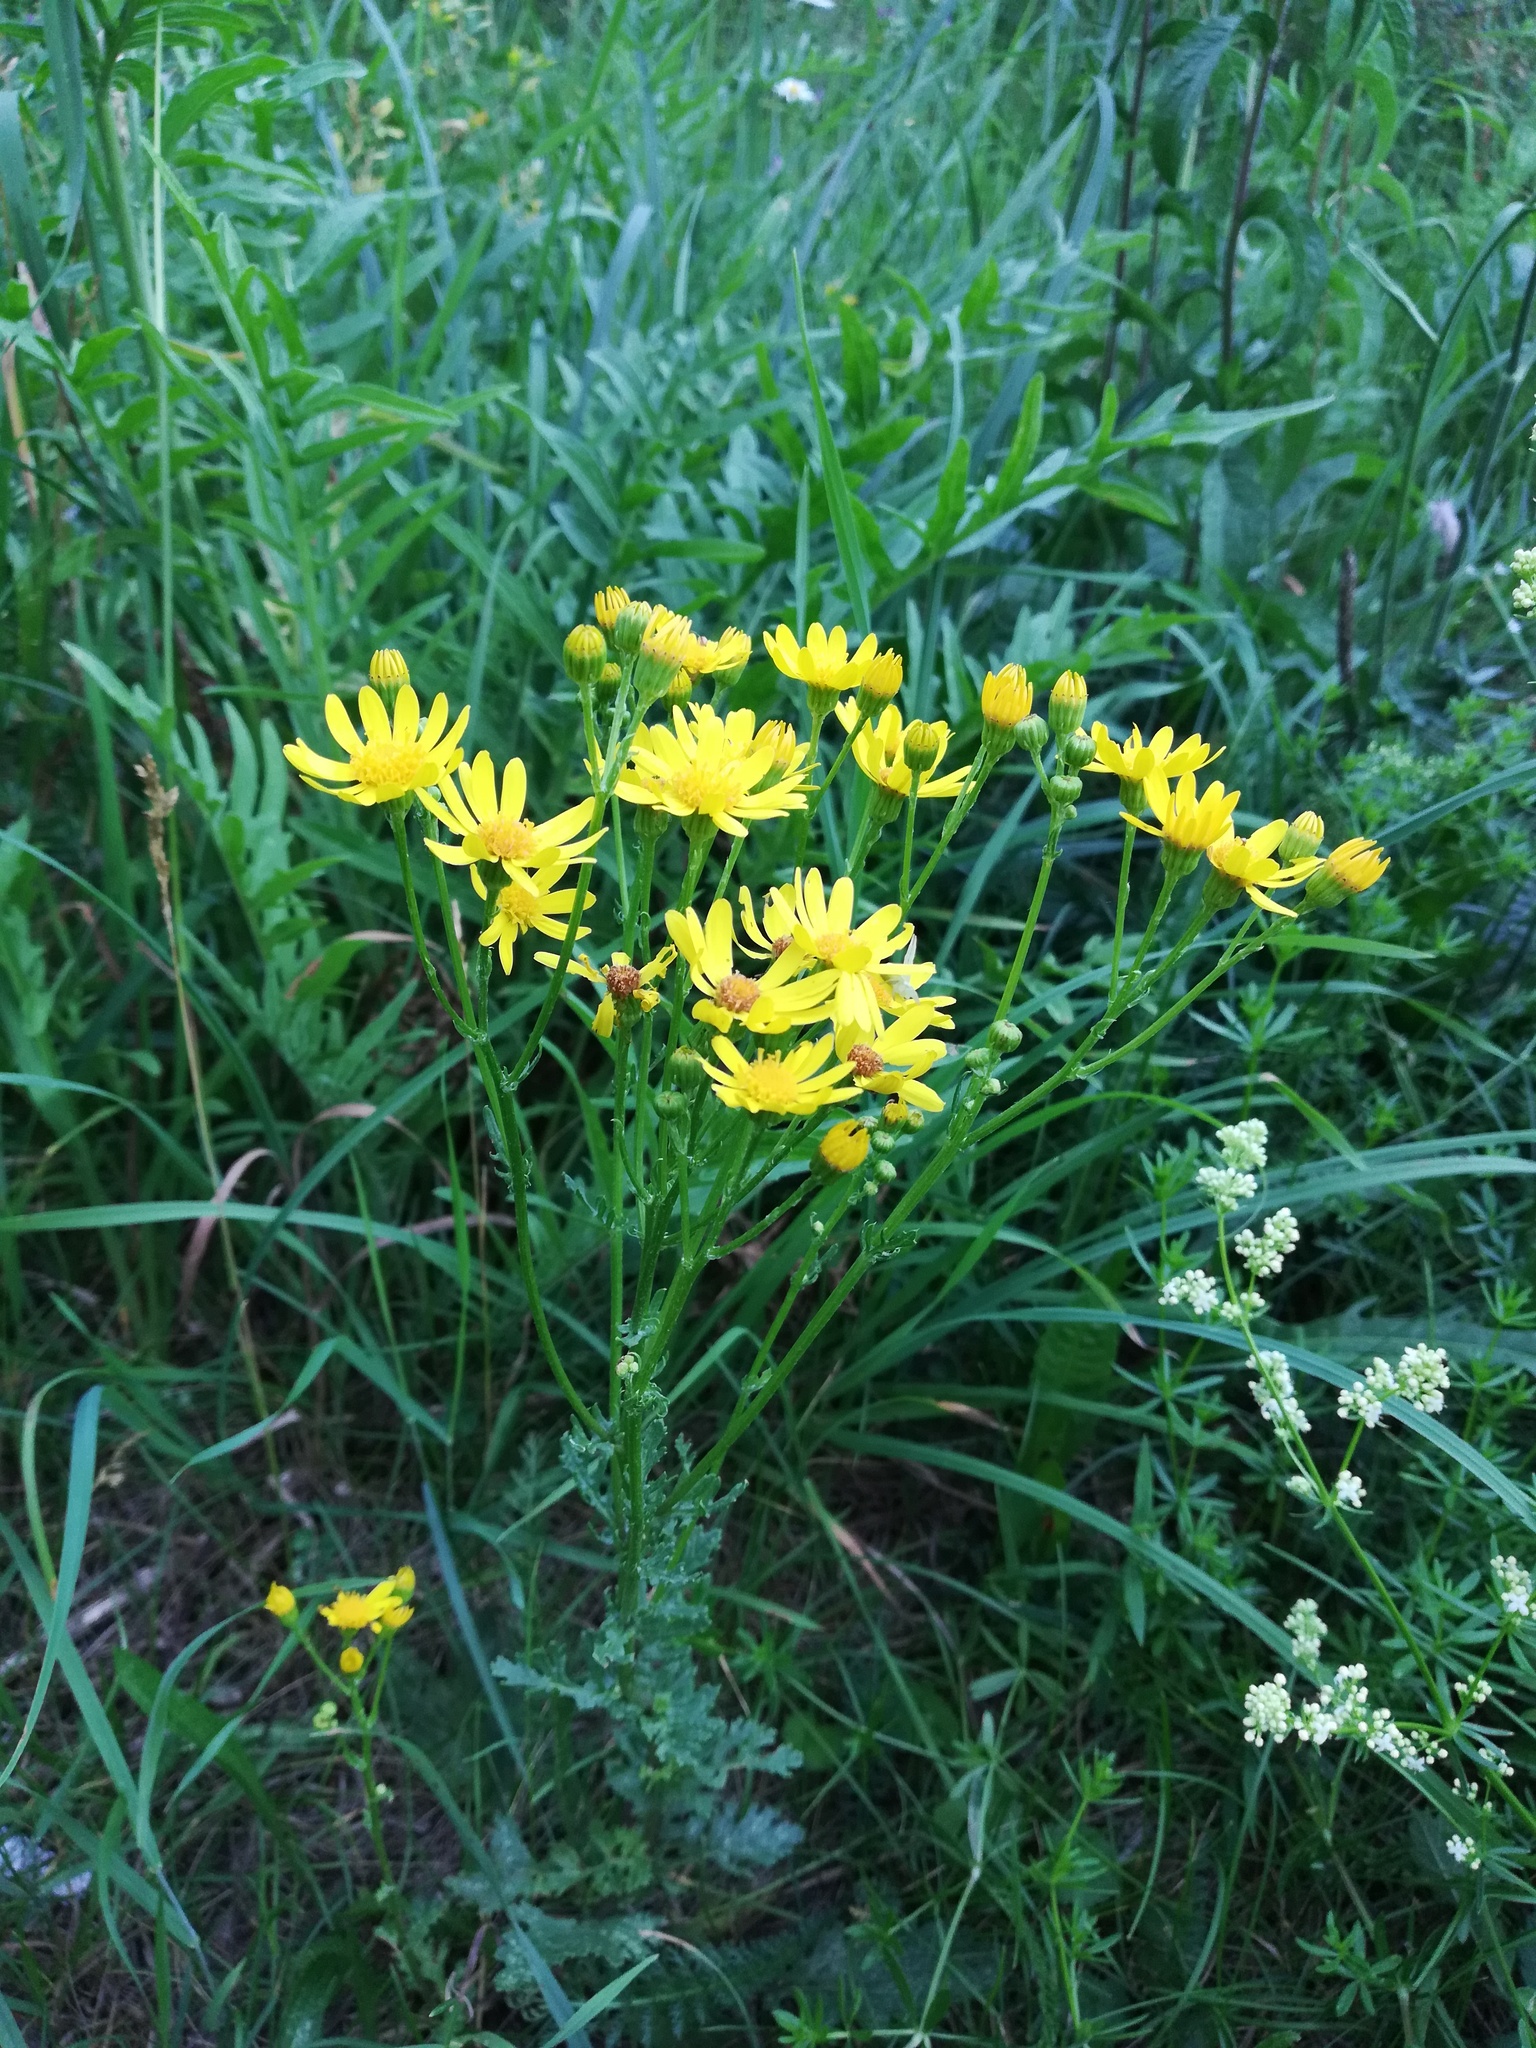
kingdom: Plantae
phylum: Tracheophyta
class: Magnoliopsida
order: Asterales
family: Asteraceae
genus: Jacobaea
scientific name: Jacobaea vulgaris
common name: Stinking willie
